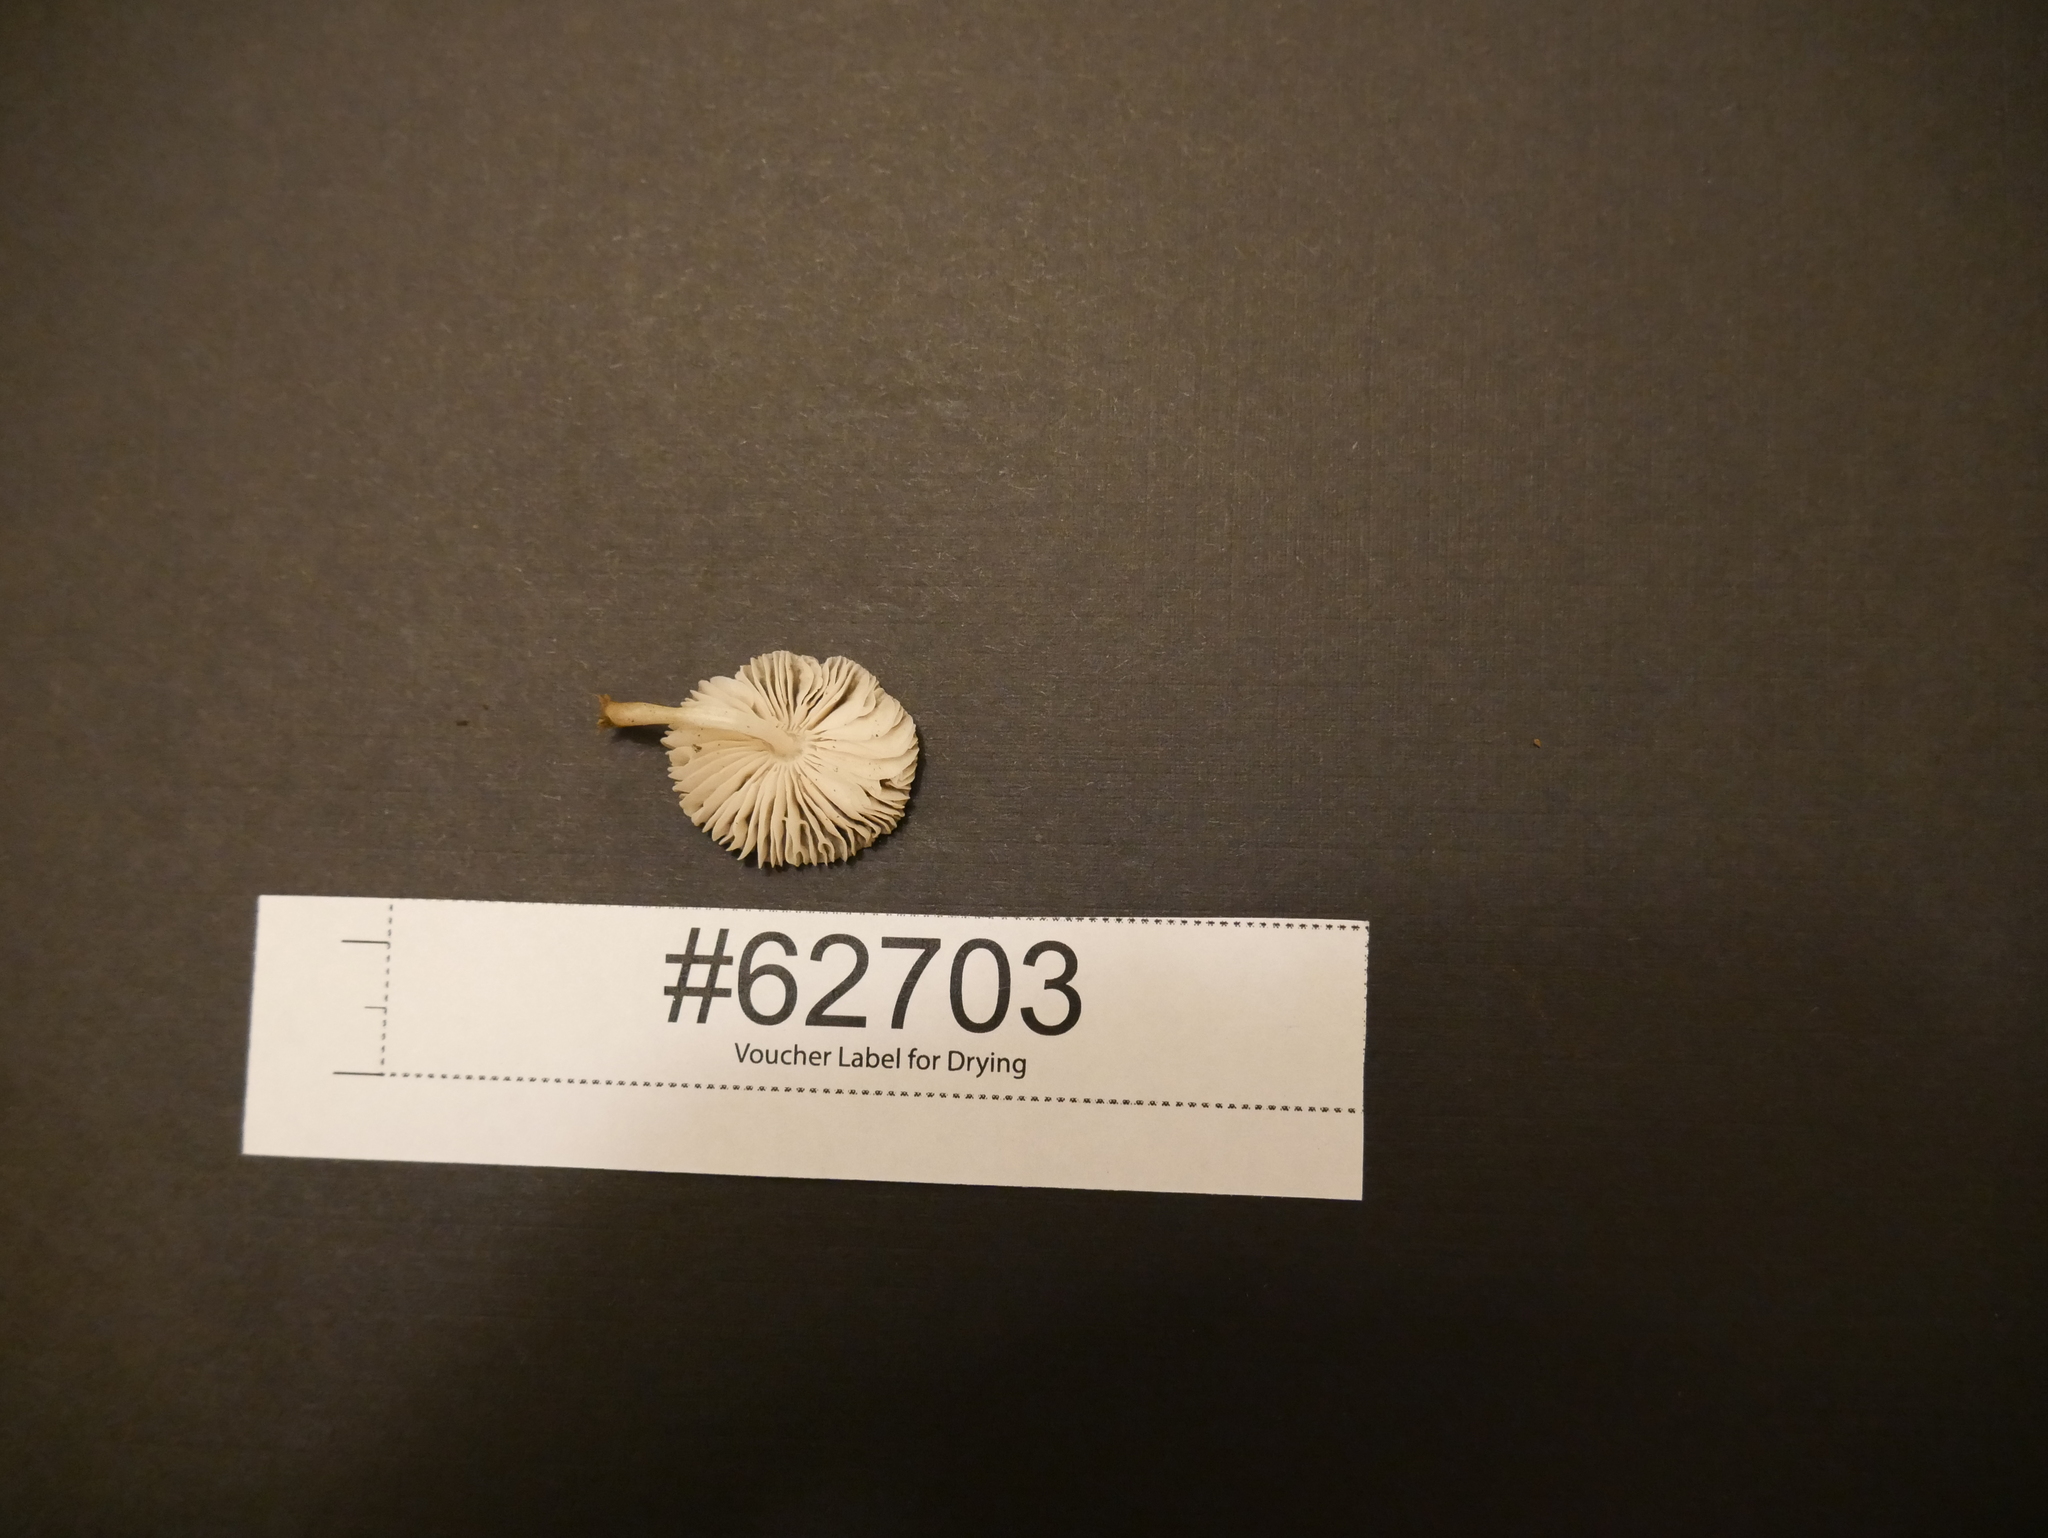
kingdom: Fungi
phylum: Basidiomycota
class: Agaricomycetes
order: Agaricales
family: Pluteaceae
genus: Pluteus
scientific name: Pluteus longistriatus
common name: Pleated pluteus
